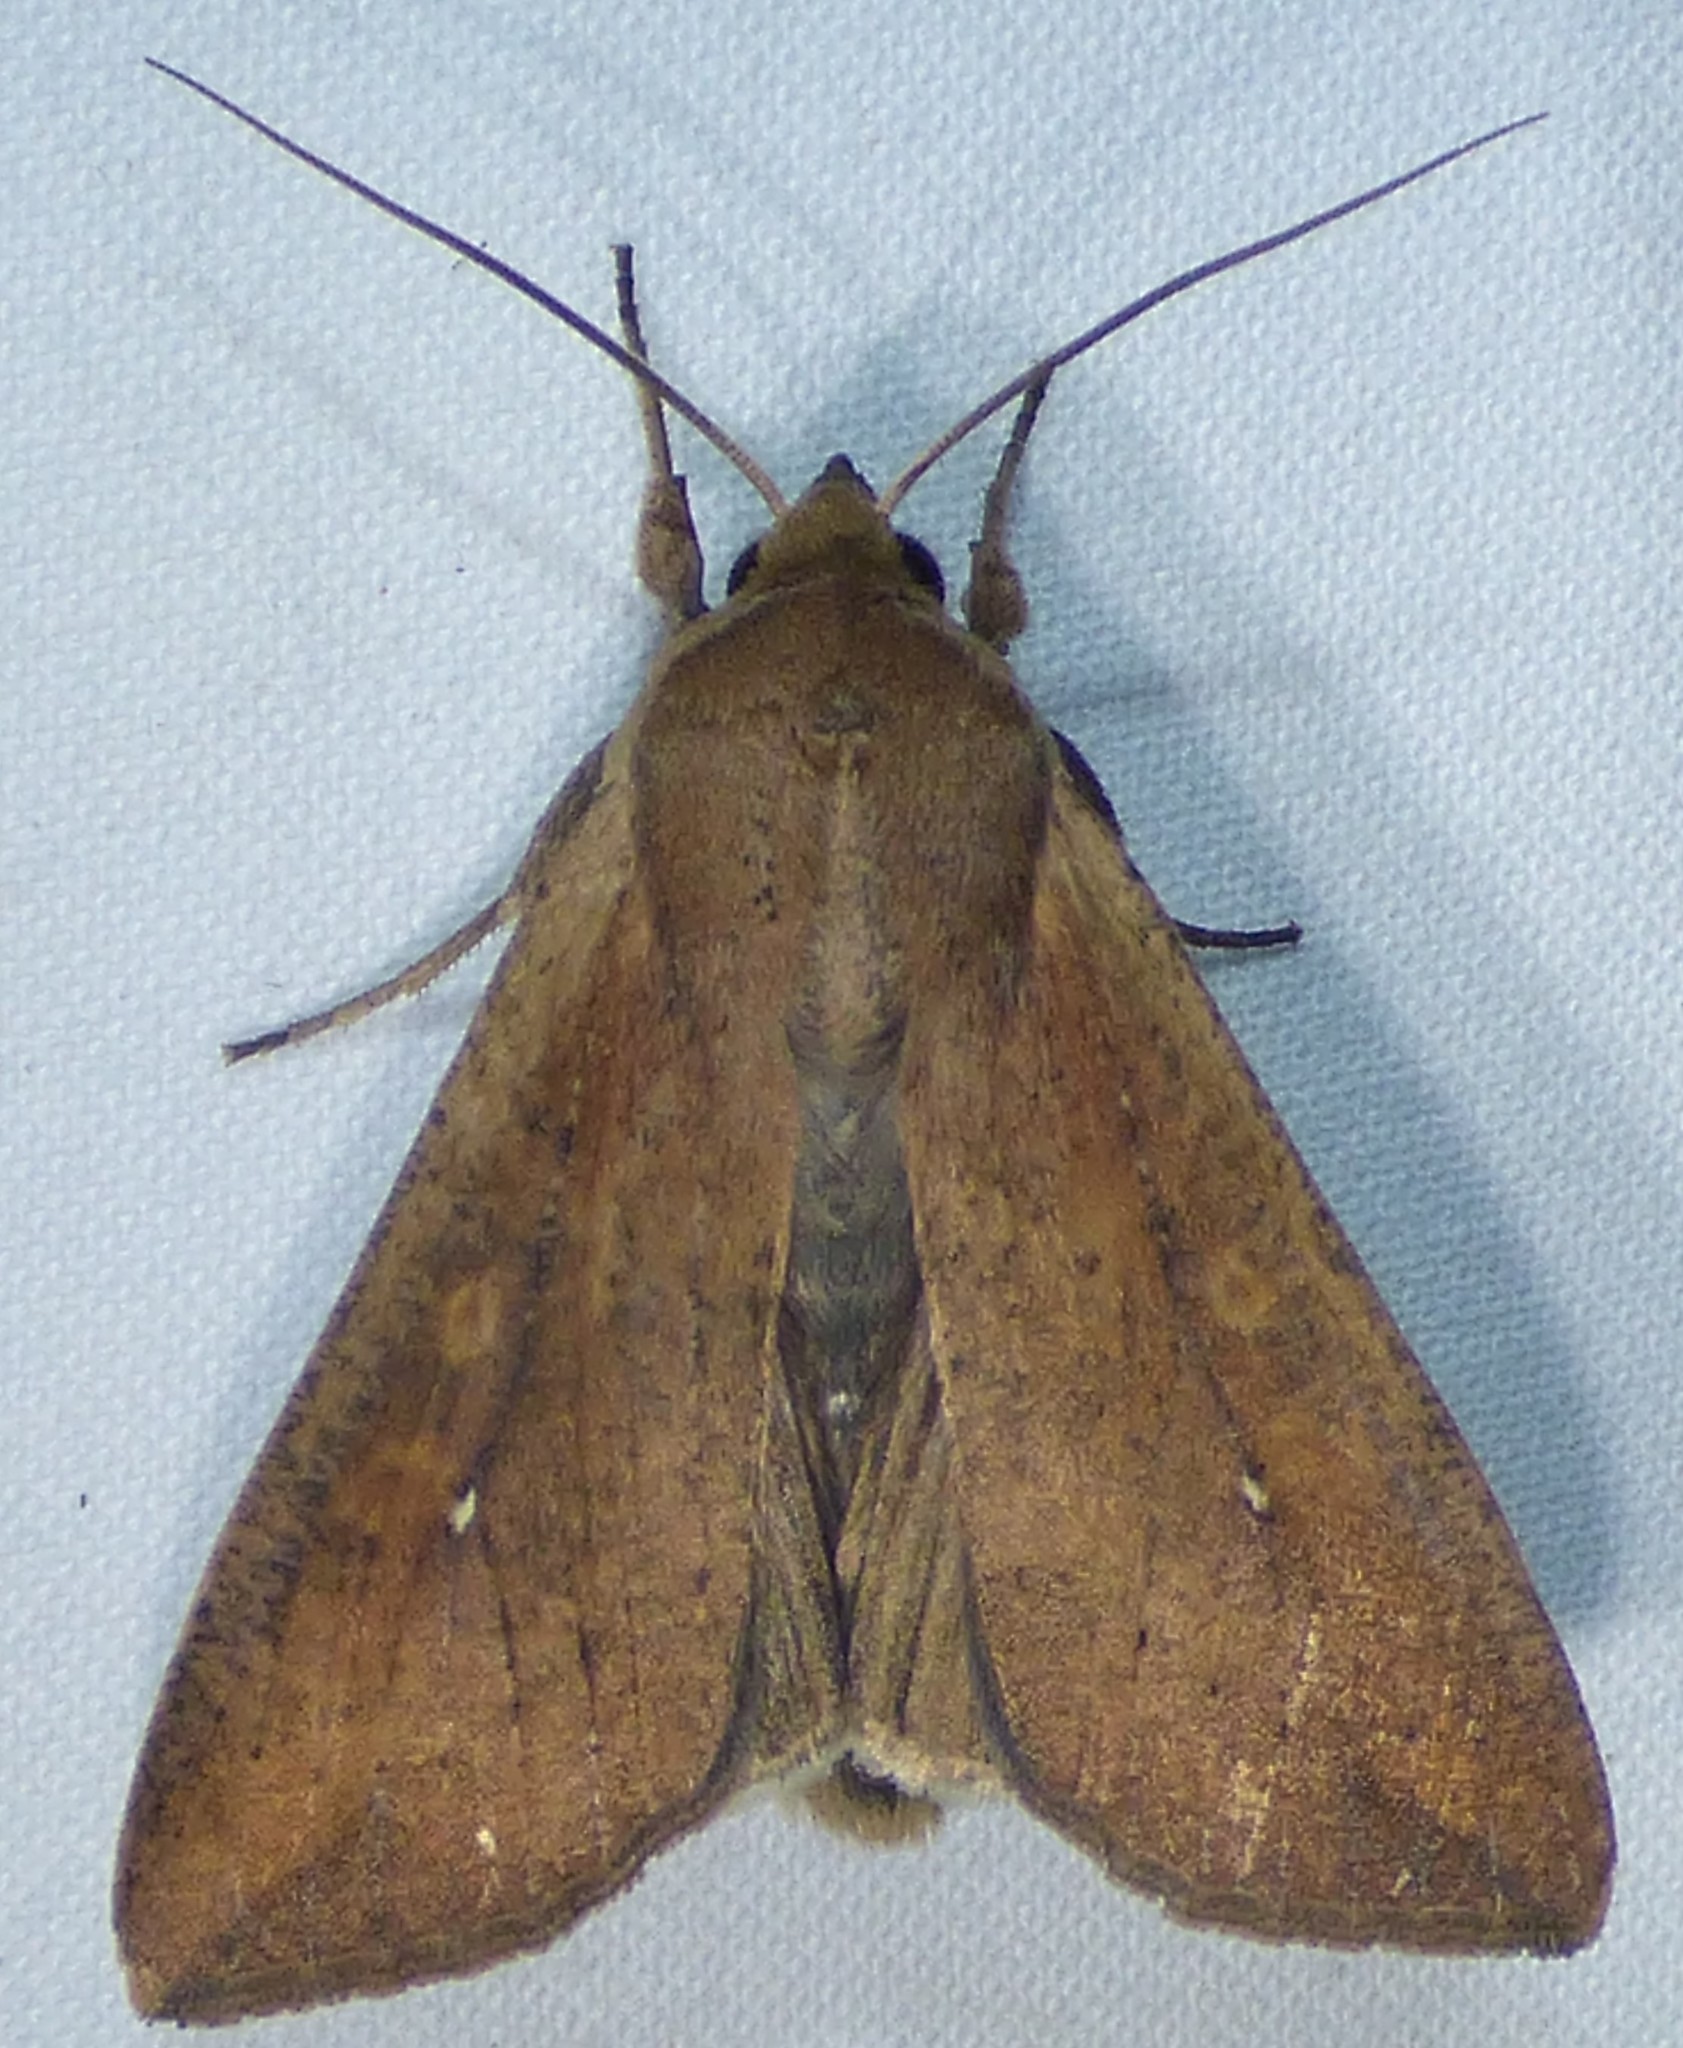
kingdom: Animalia
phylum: Arthropoda
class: Insecta
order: Lepidoptera
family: Noctuidae
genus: Mythimna
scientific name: Mythimna unipuncta
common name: White-speck
